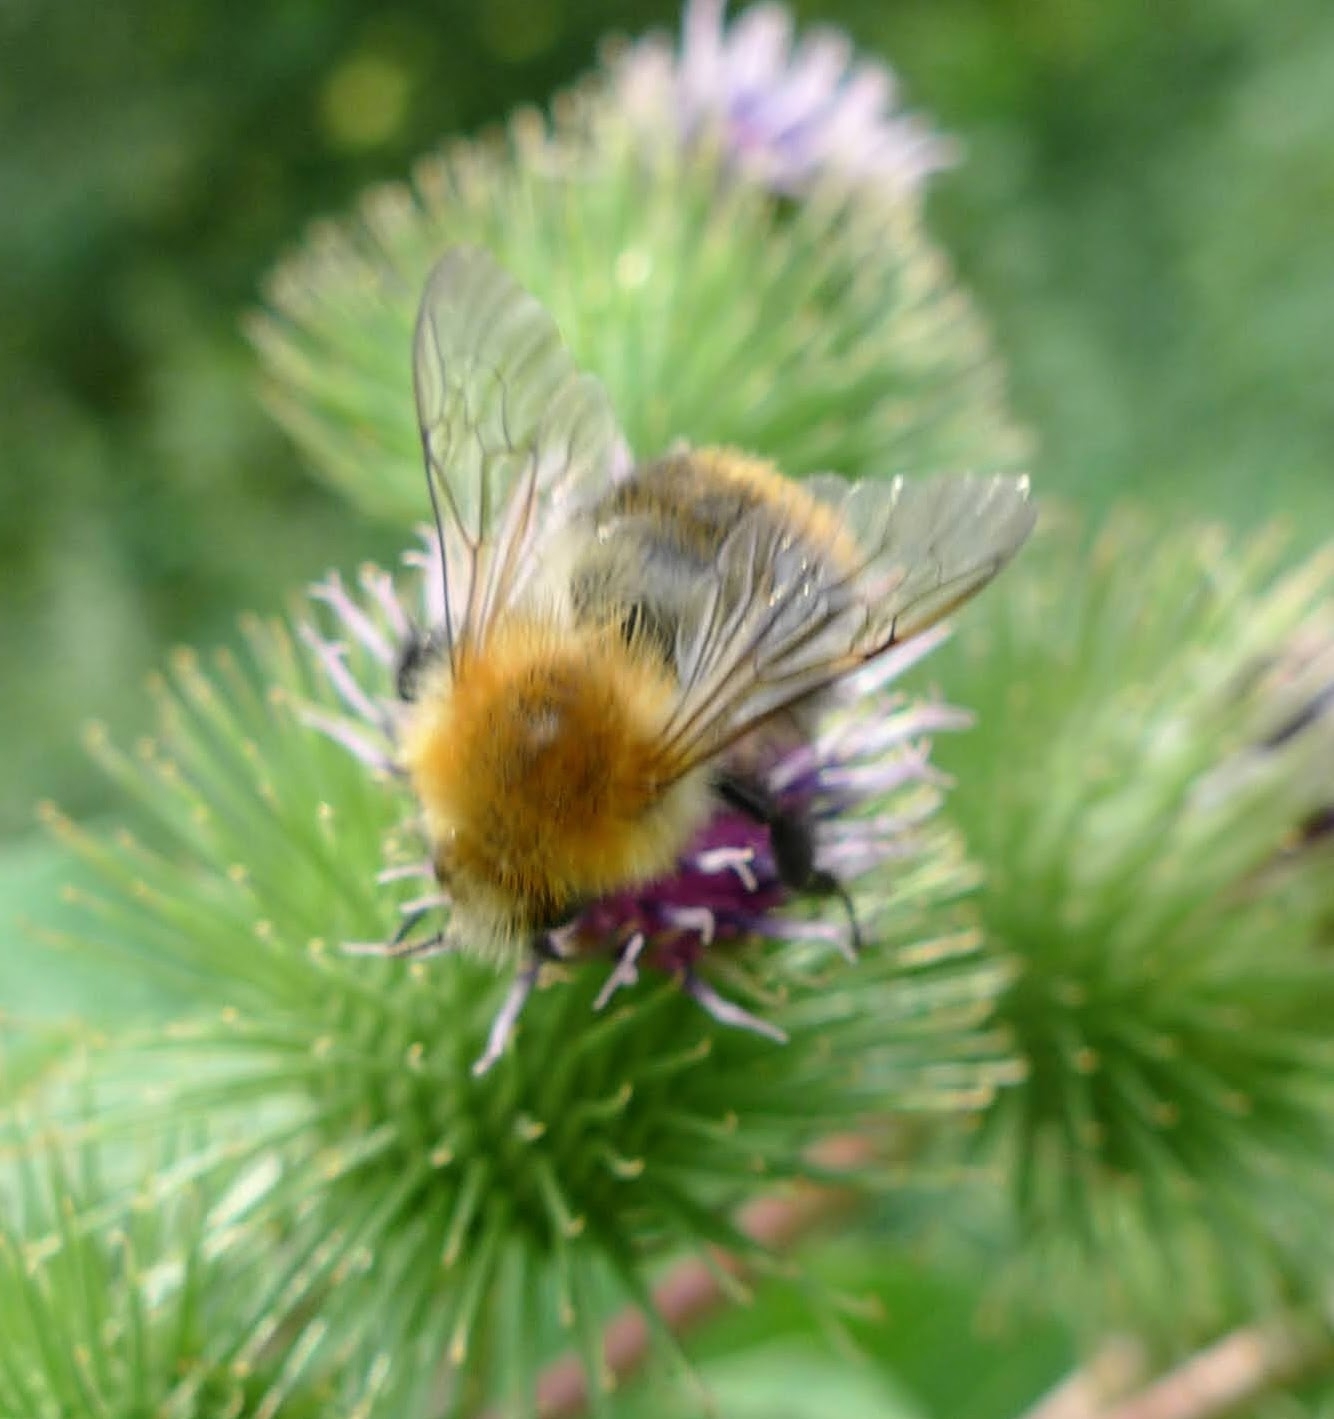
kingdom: Animalia
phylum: Arthropoda
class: Insecta
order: Hymenoptera
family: Apidae
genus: Bombus
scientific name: Bombus pascuorum
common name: Common carder bee
